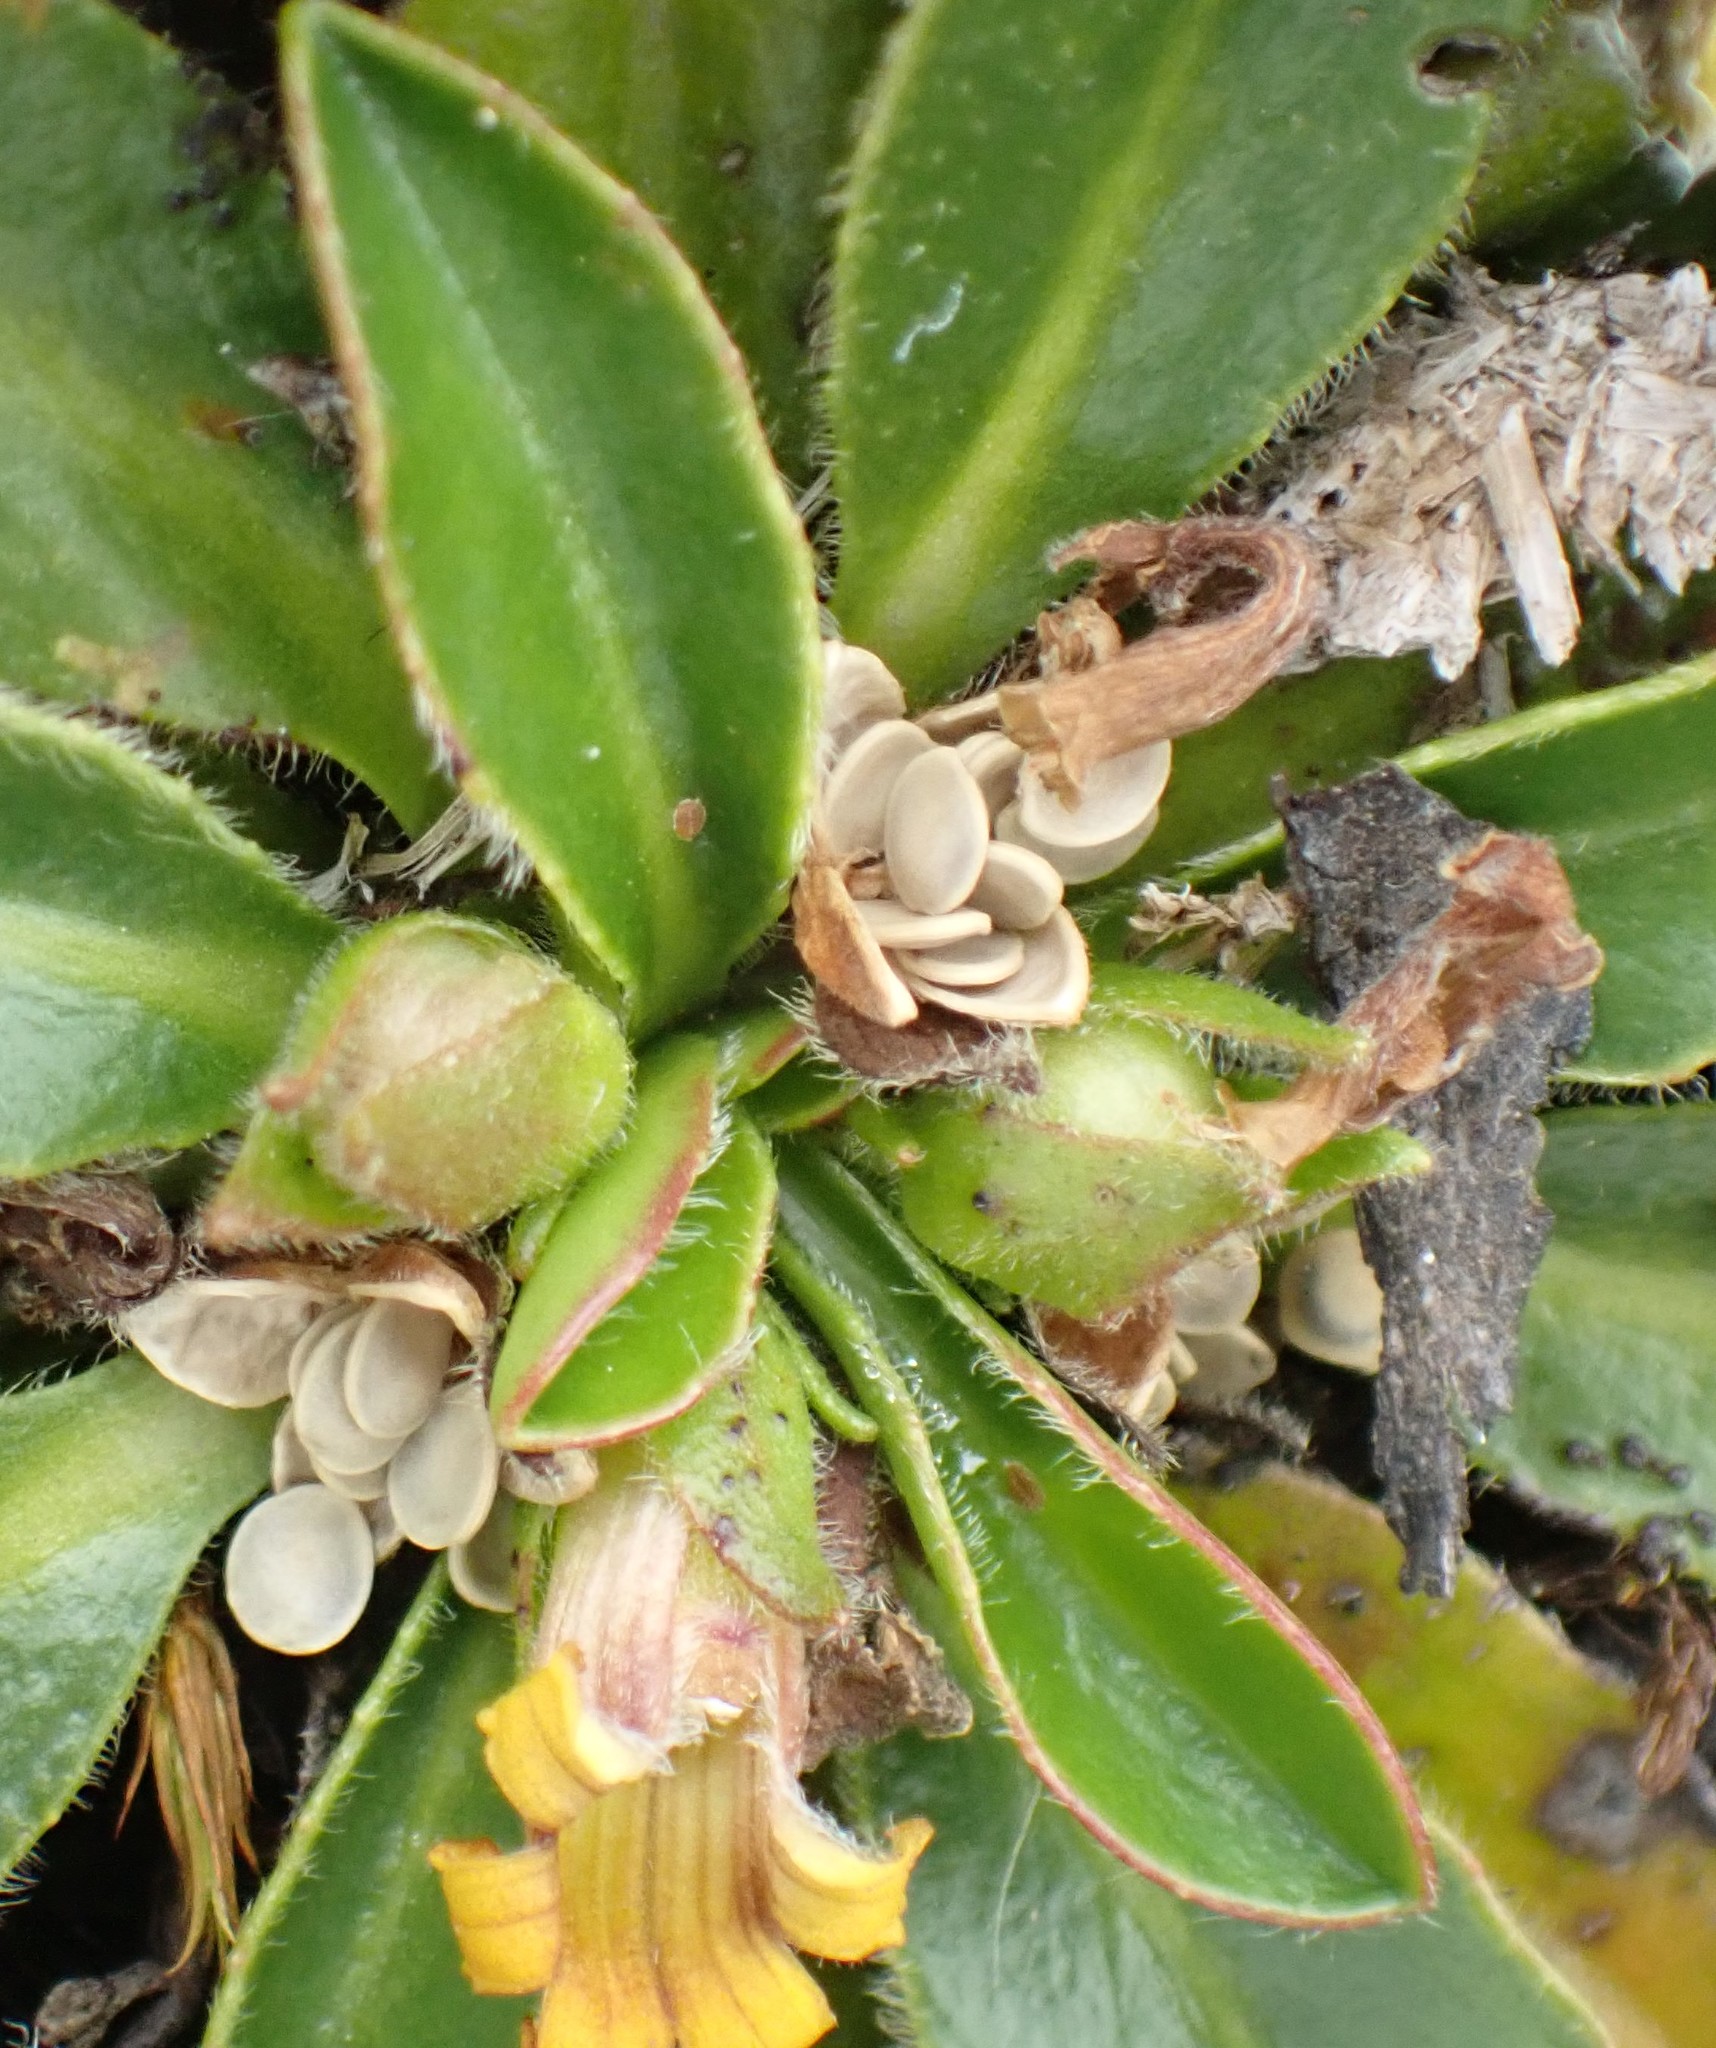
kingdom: Plantae
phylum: Tracheophyta
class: Magnoliopsida
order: Asterales
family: Goodeniaceae
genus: Goodenia
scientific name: Goodenia montana
